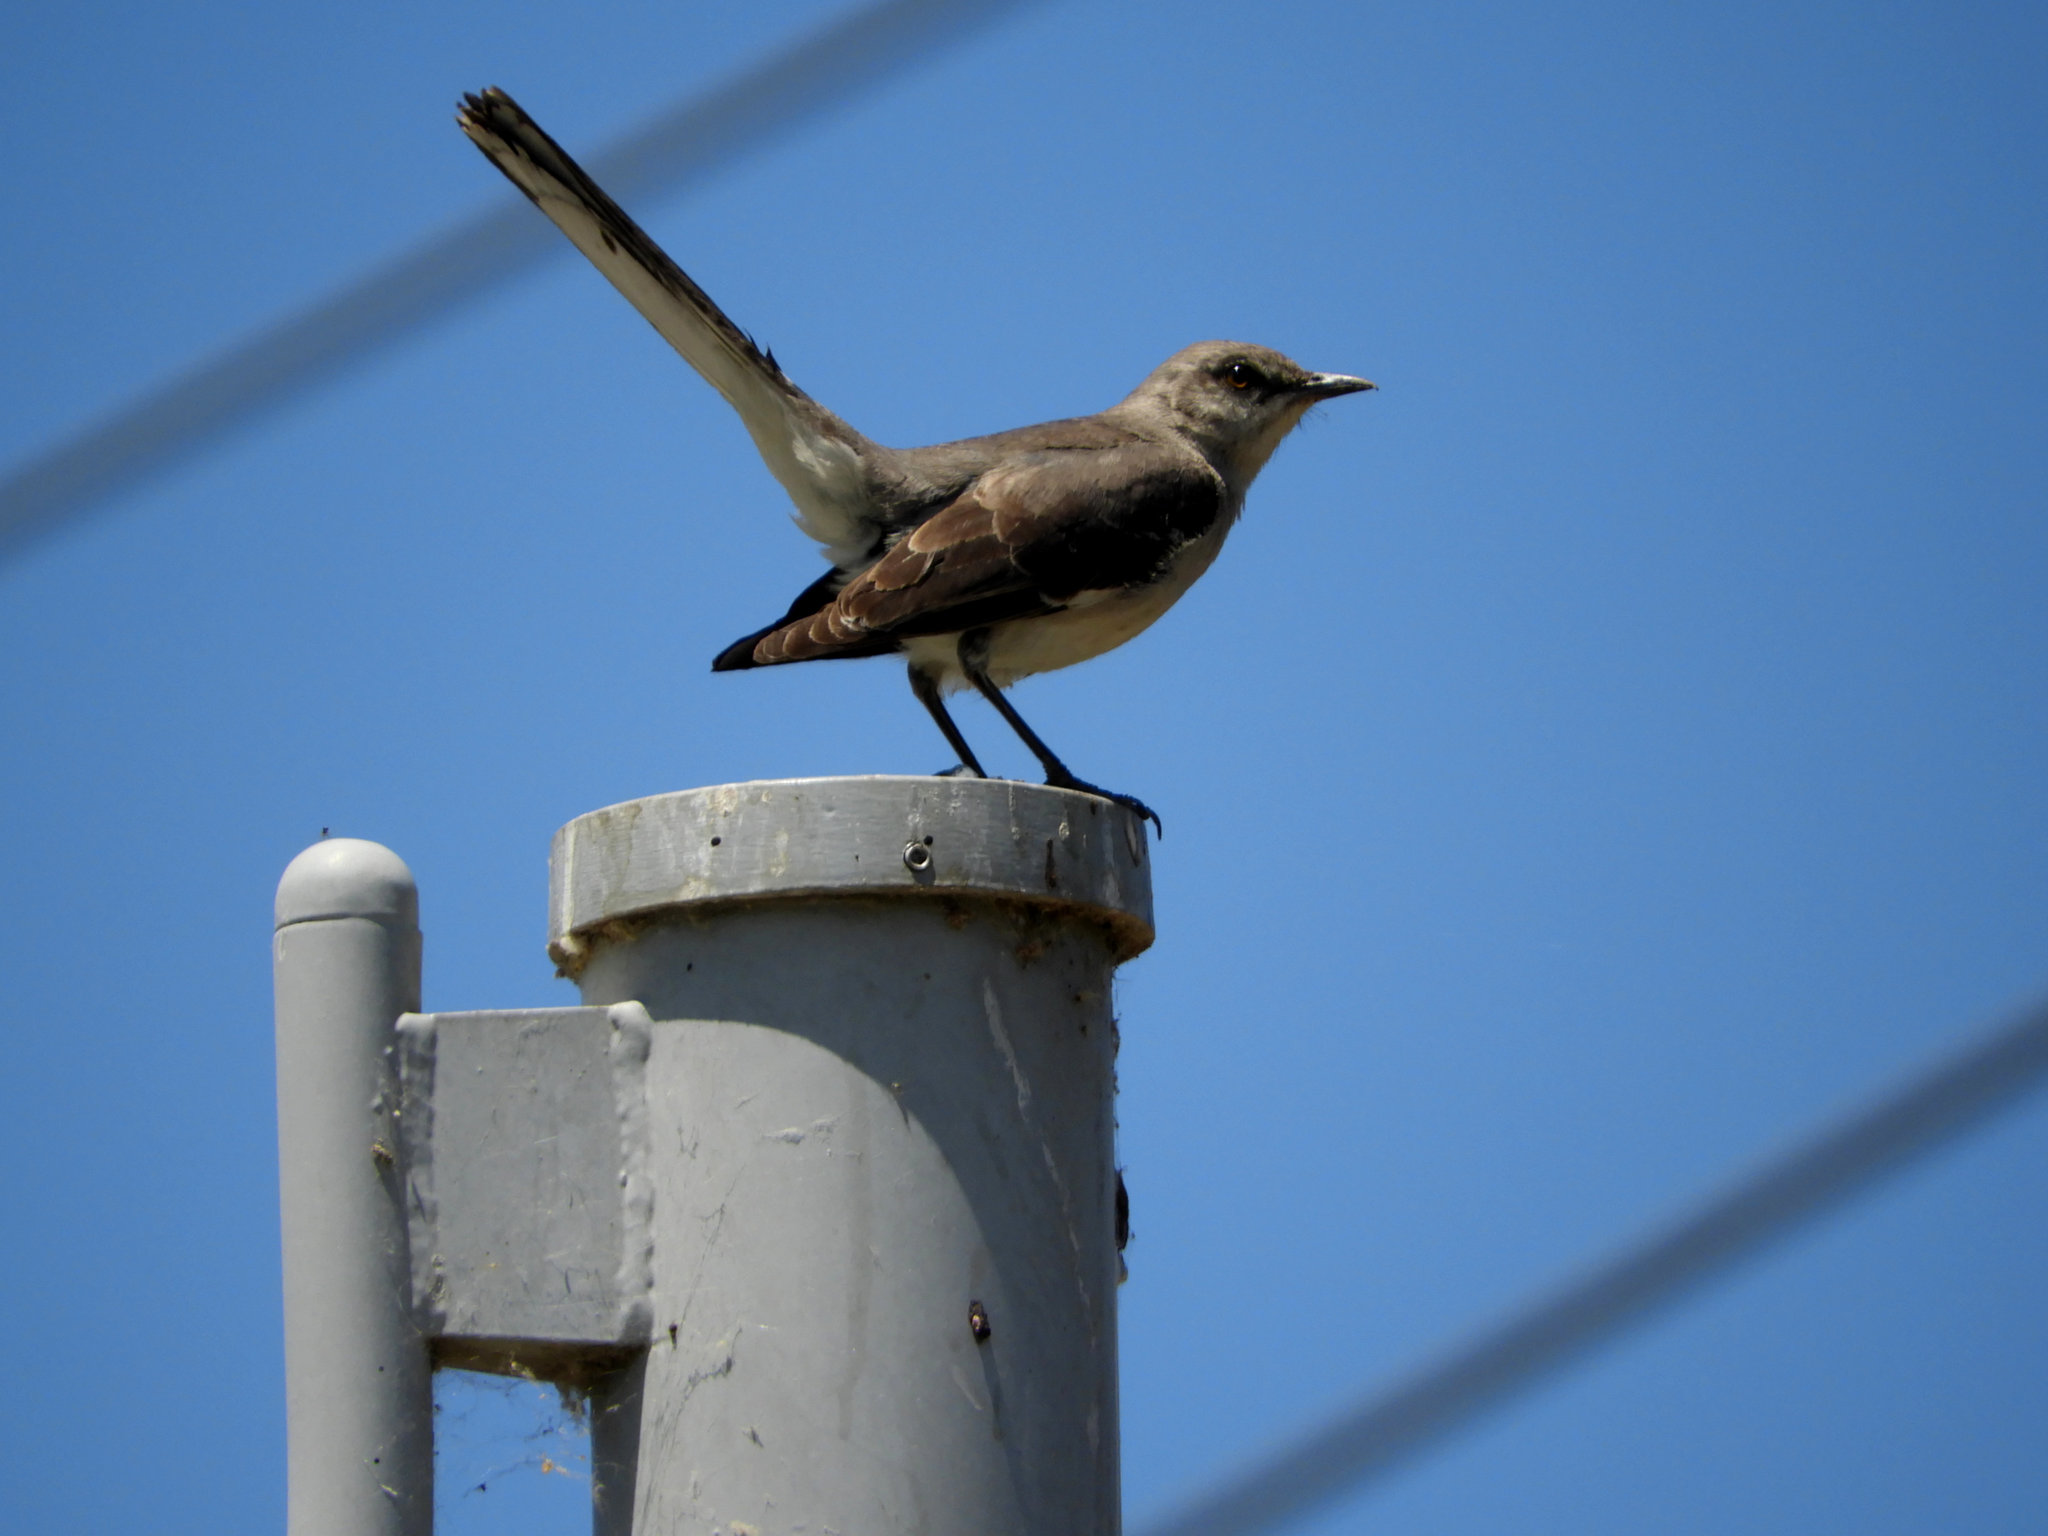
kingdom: Animalia
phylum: Chordata
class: Aves
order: Passeriformes
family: Mimidae
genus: Mimus
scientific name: Mimus polyglottos
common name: Northern mockingbird
